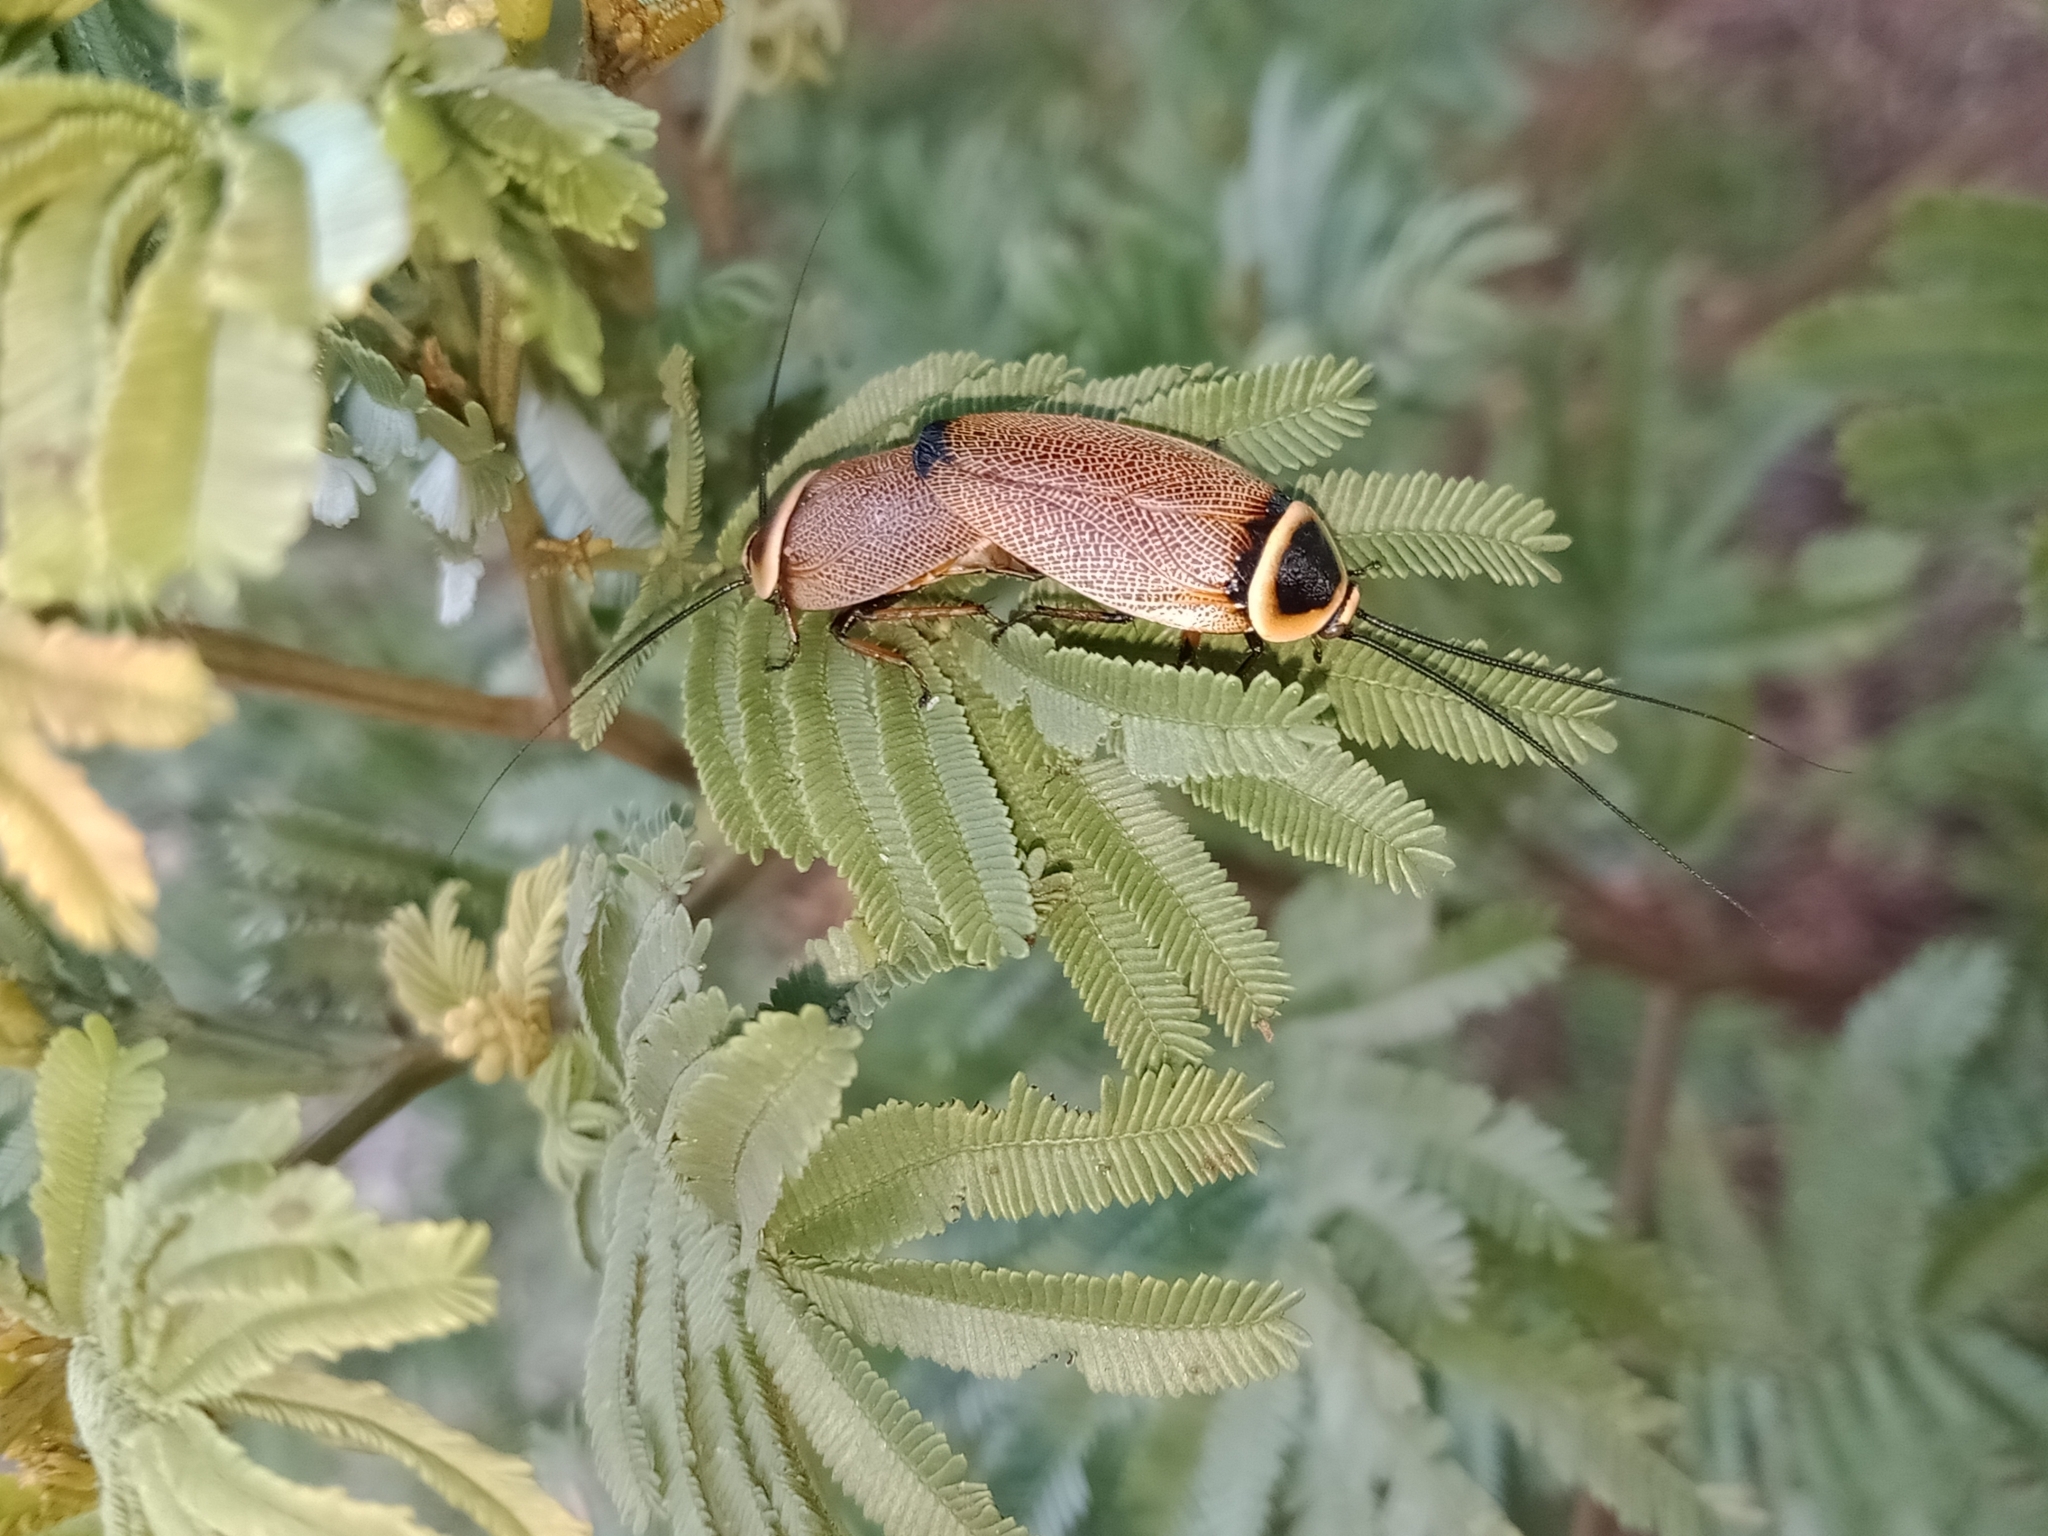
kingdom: Animalia
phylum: Arthropoda
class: Insecta
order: Blattodea
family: Ectobiidae
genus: Ellipsidion
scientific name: Ellipsidion australe
